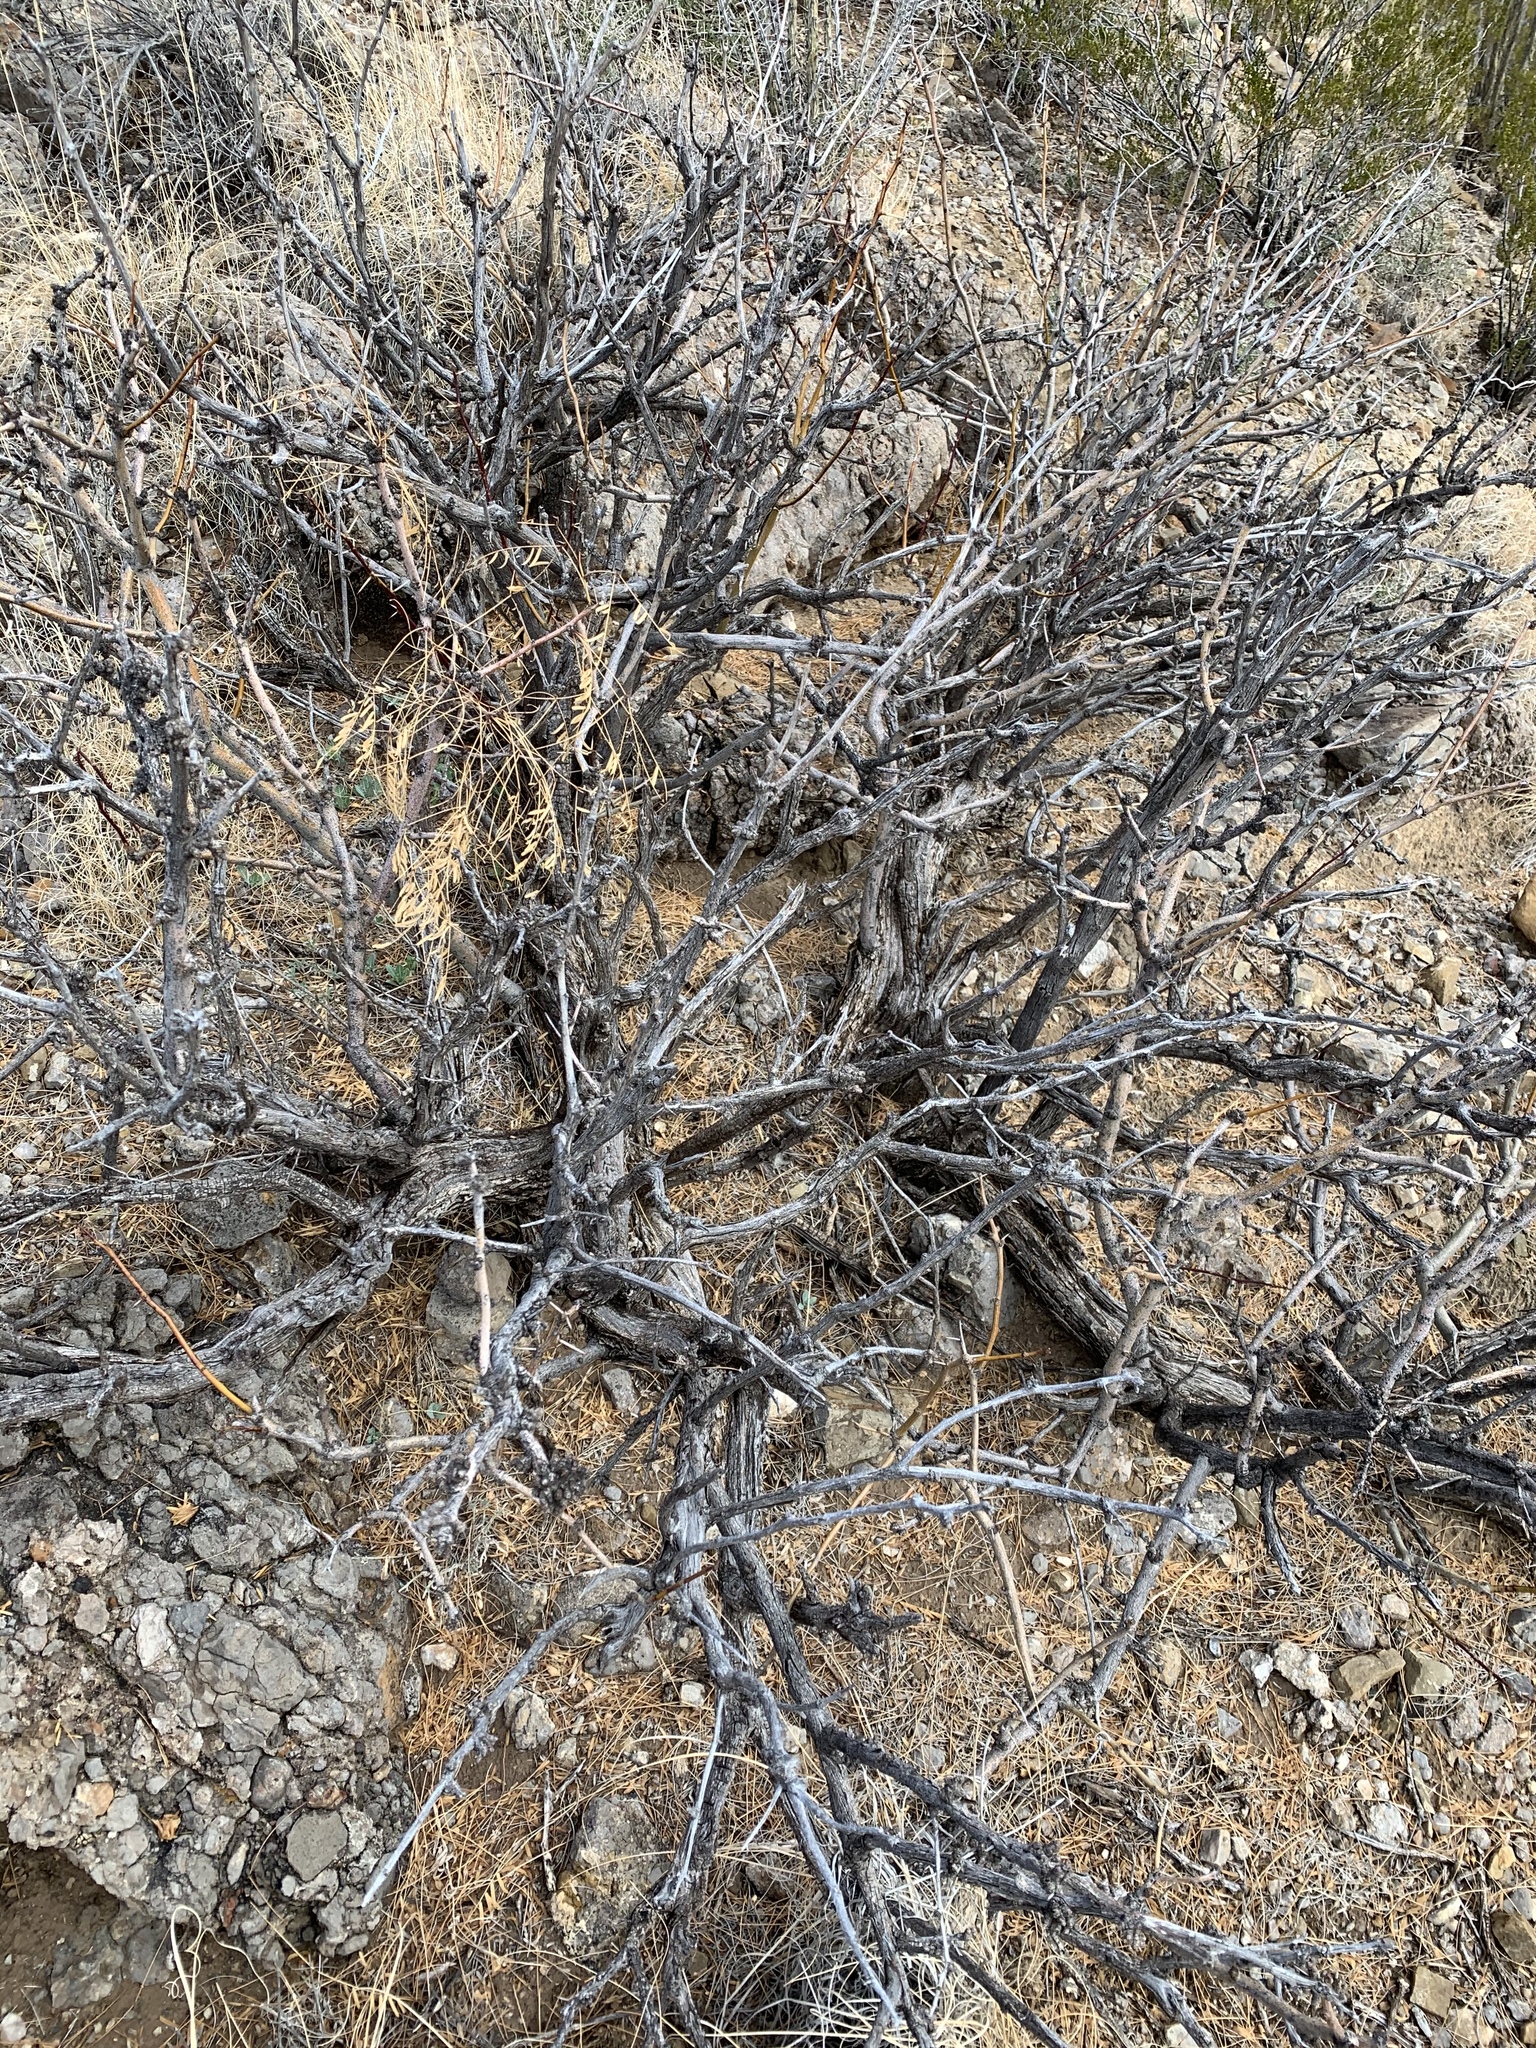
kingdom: Plantae
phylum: Tracheophyta
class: Magnoliopsida
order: Fabales
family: Fabaceae
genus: Prosopis
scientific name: Prosopis glandulosa
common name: Honey mesquite
